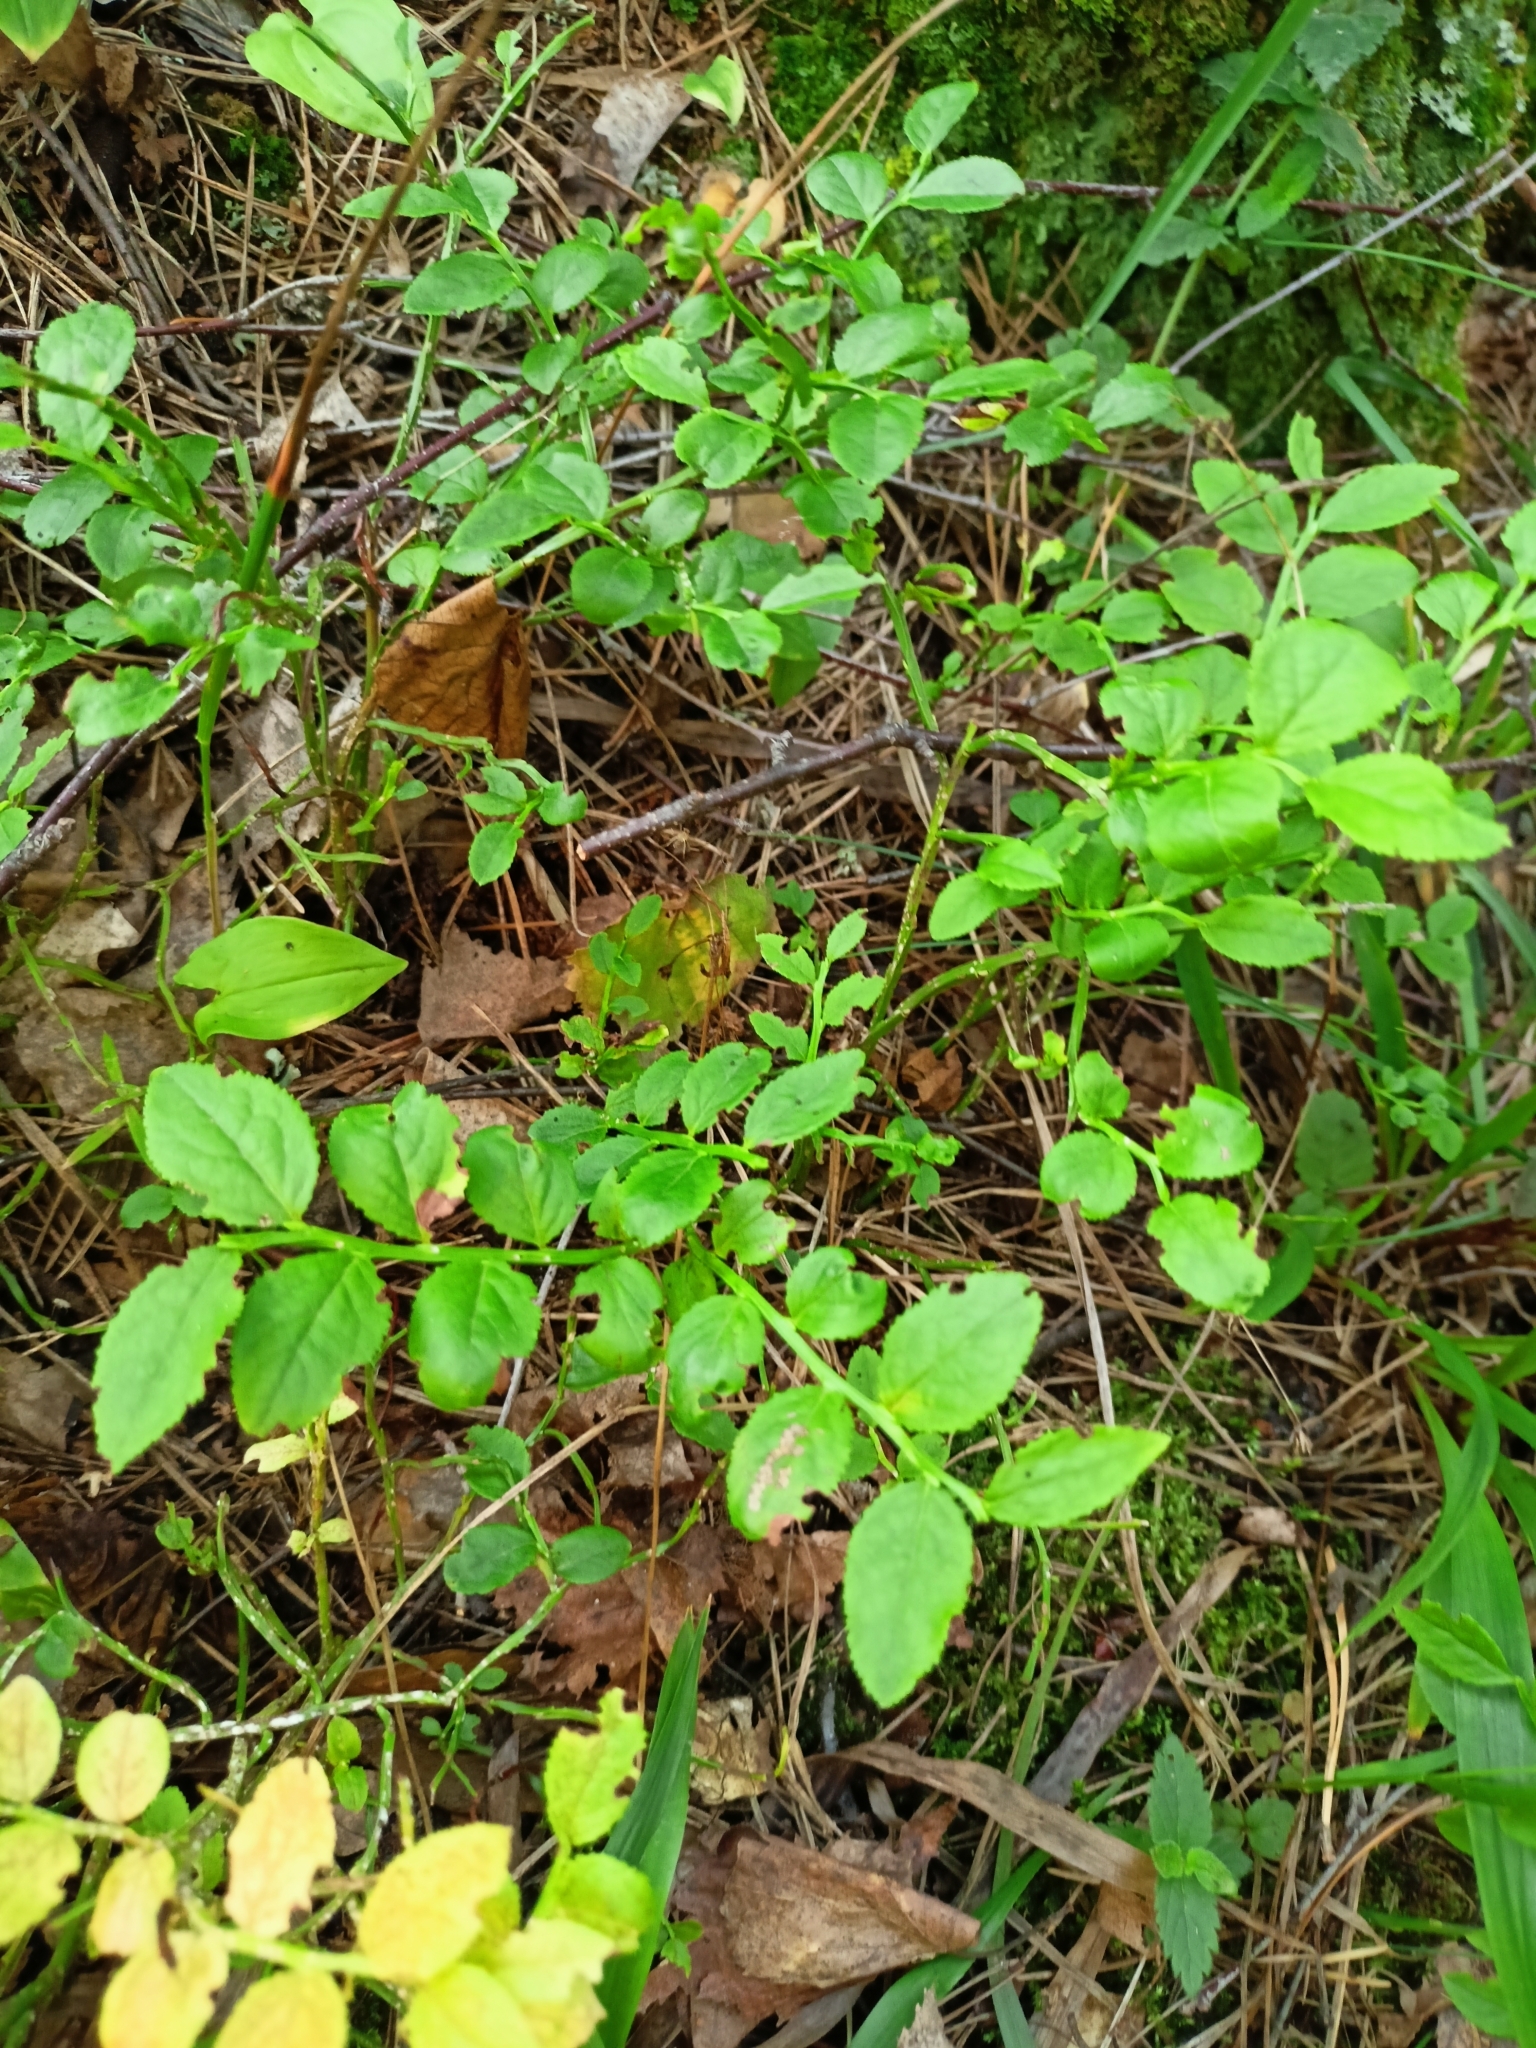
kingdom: Plantae
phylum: Tracheophyta
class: Magnoliopsida
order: Ericales
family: Ericaceae
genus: Vaccinium
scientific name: Vaccinium myrtillus
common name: Bilberry
